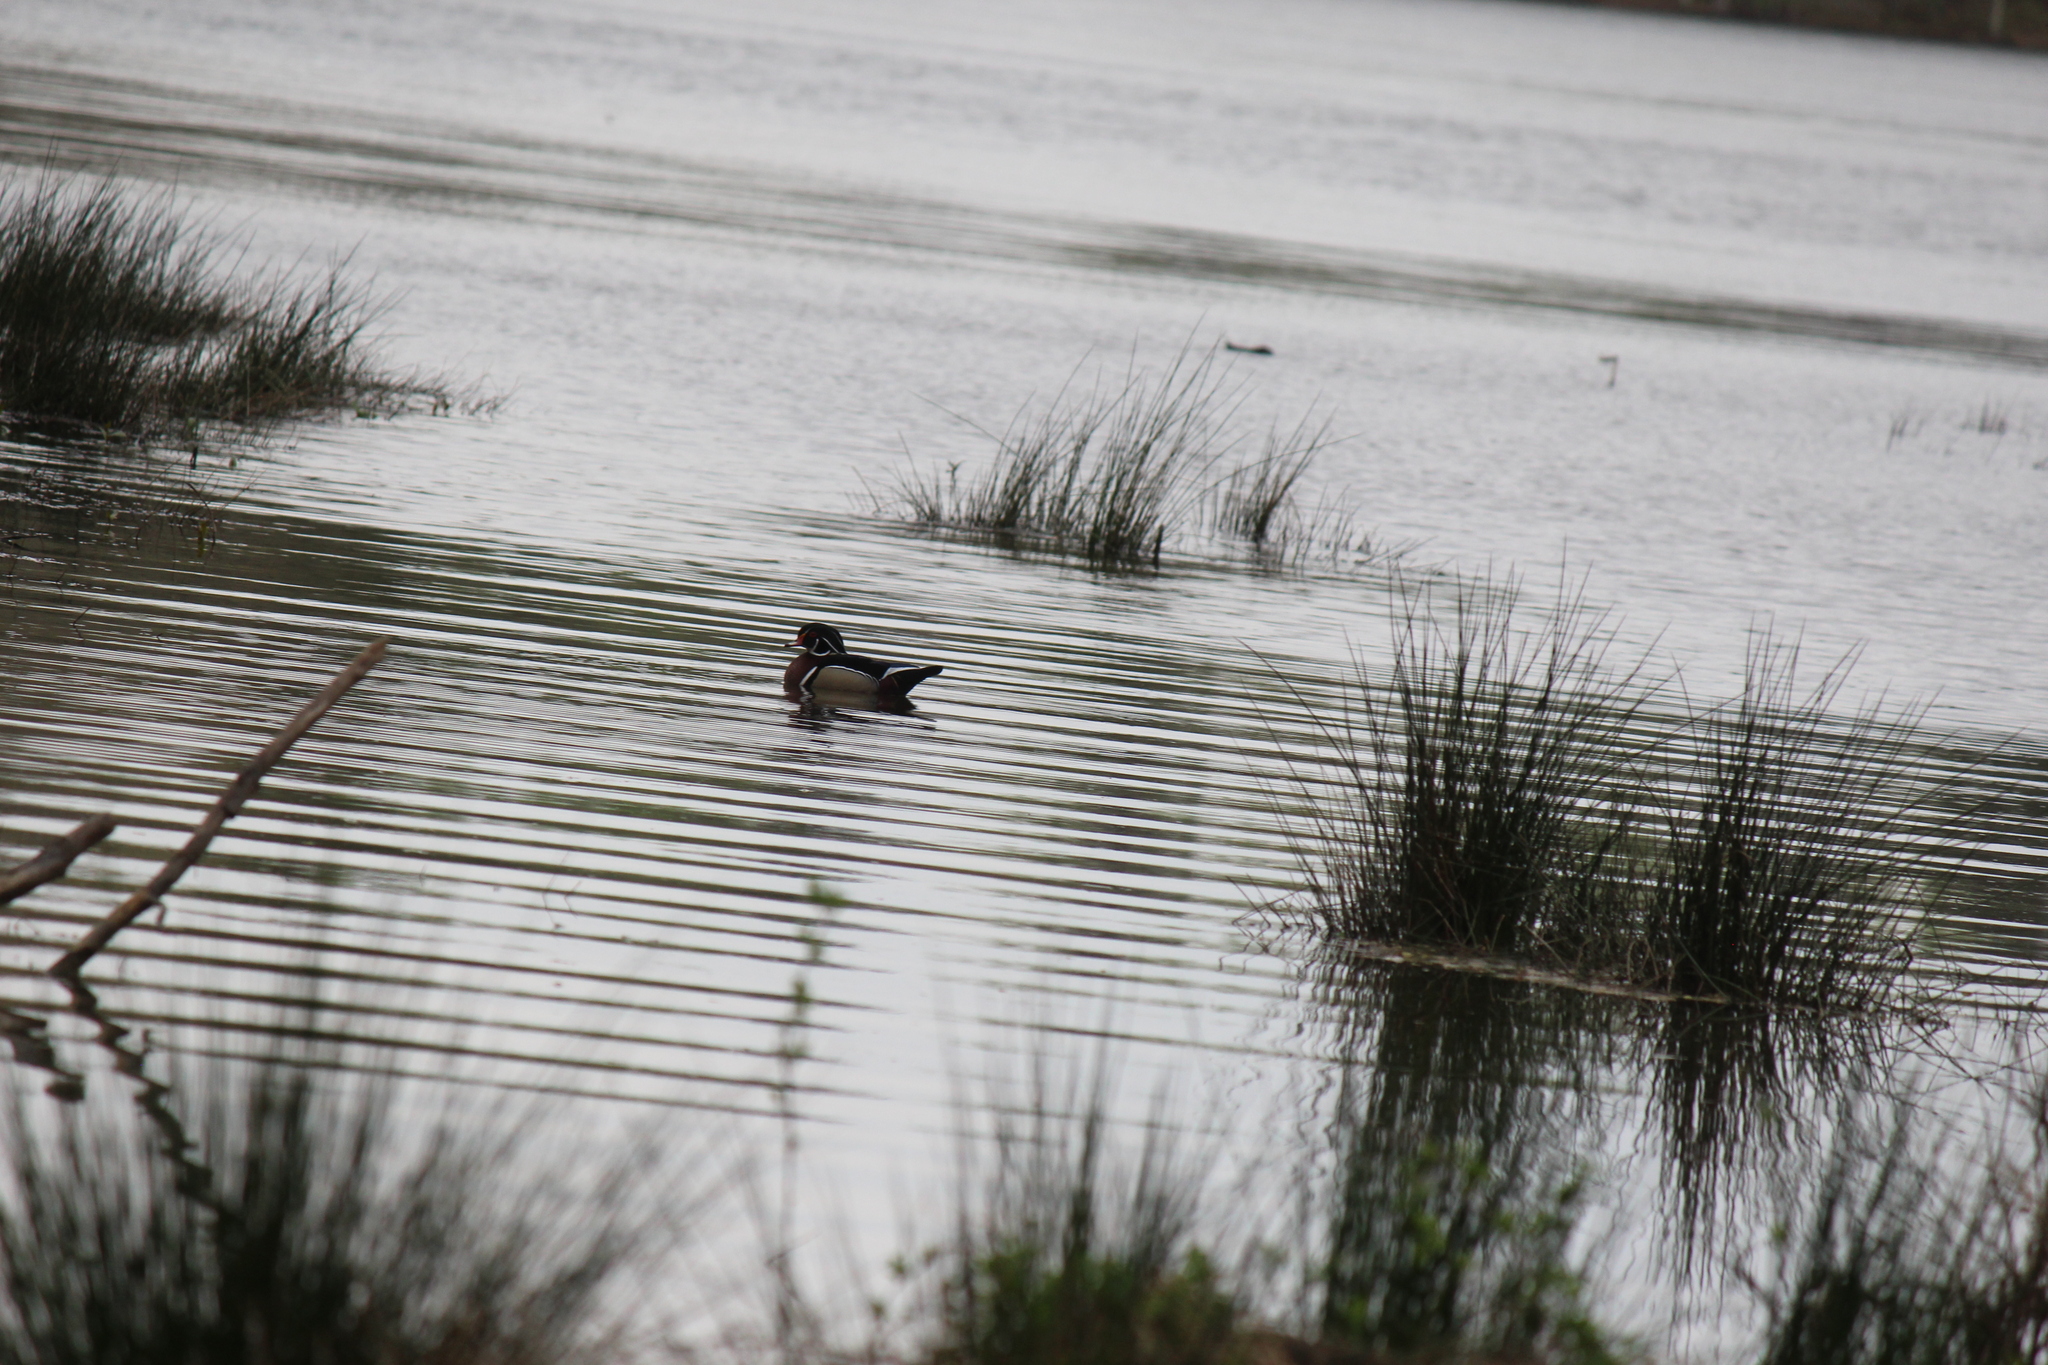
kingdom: Animalia
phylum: Chordata
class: Aves
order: Anseriformes
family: Anatidae
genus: Aix
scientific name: Aix sponsa
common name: Wood duck
